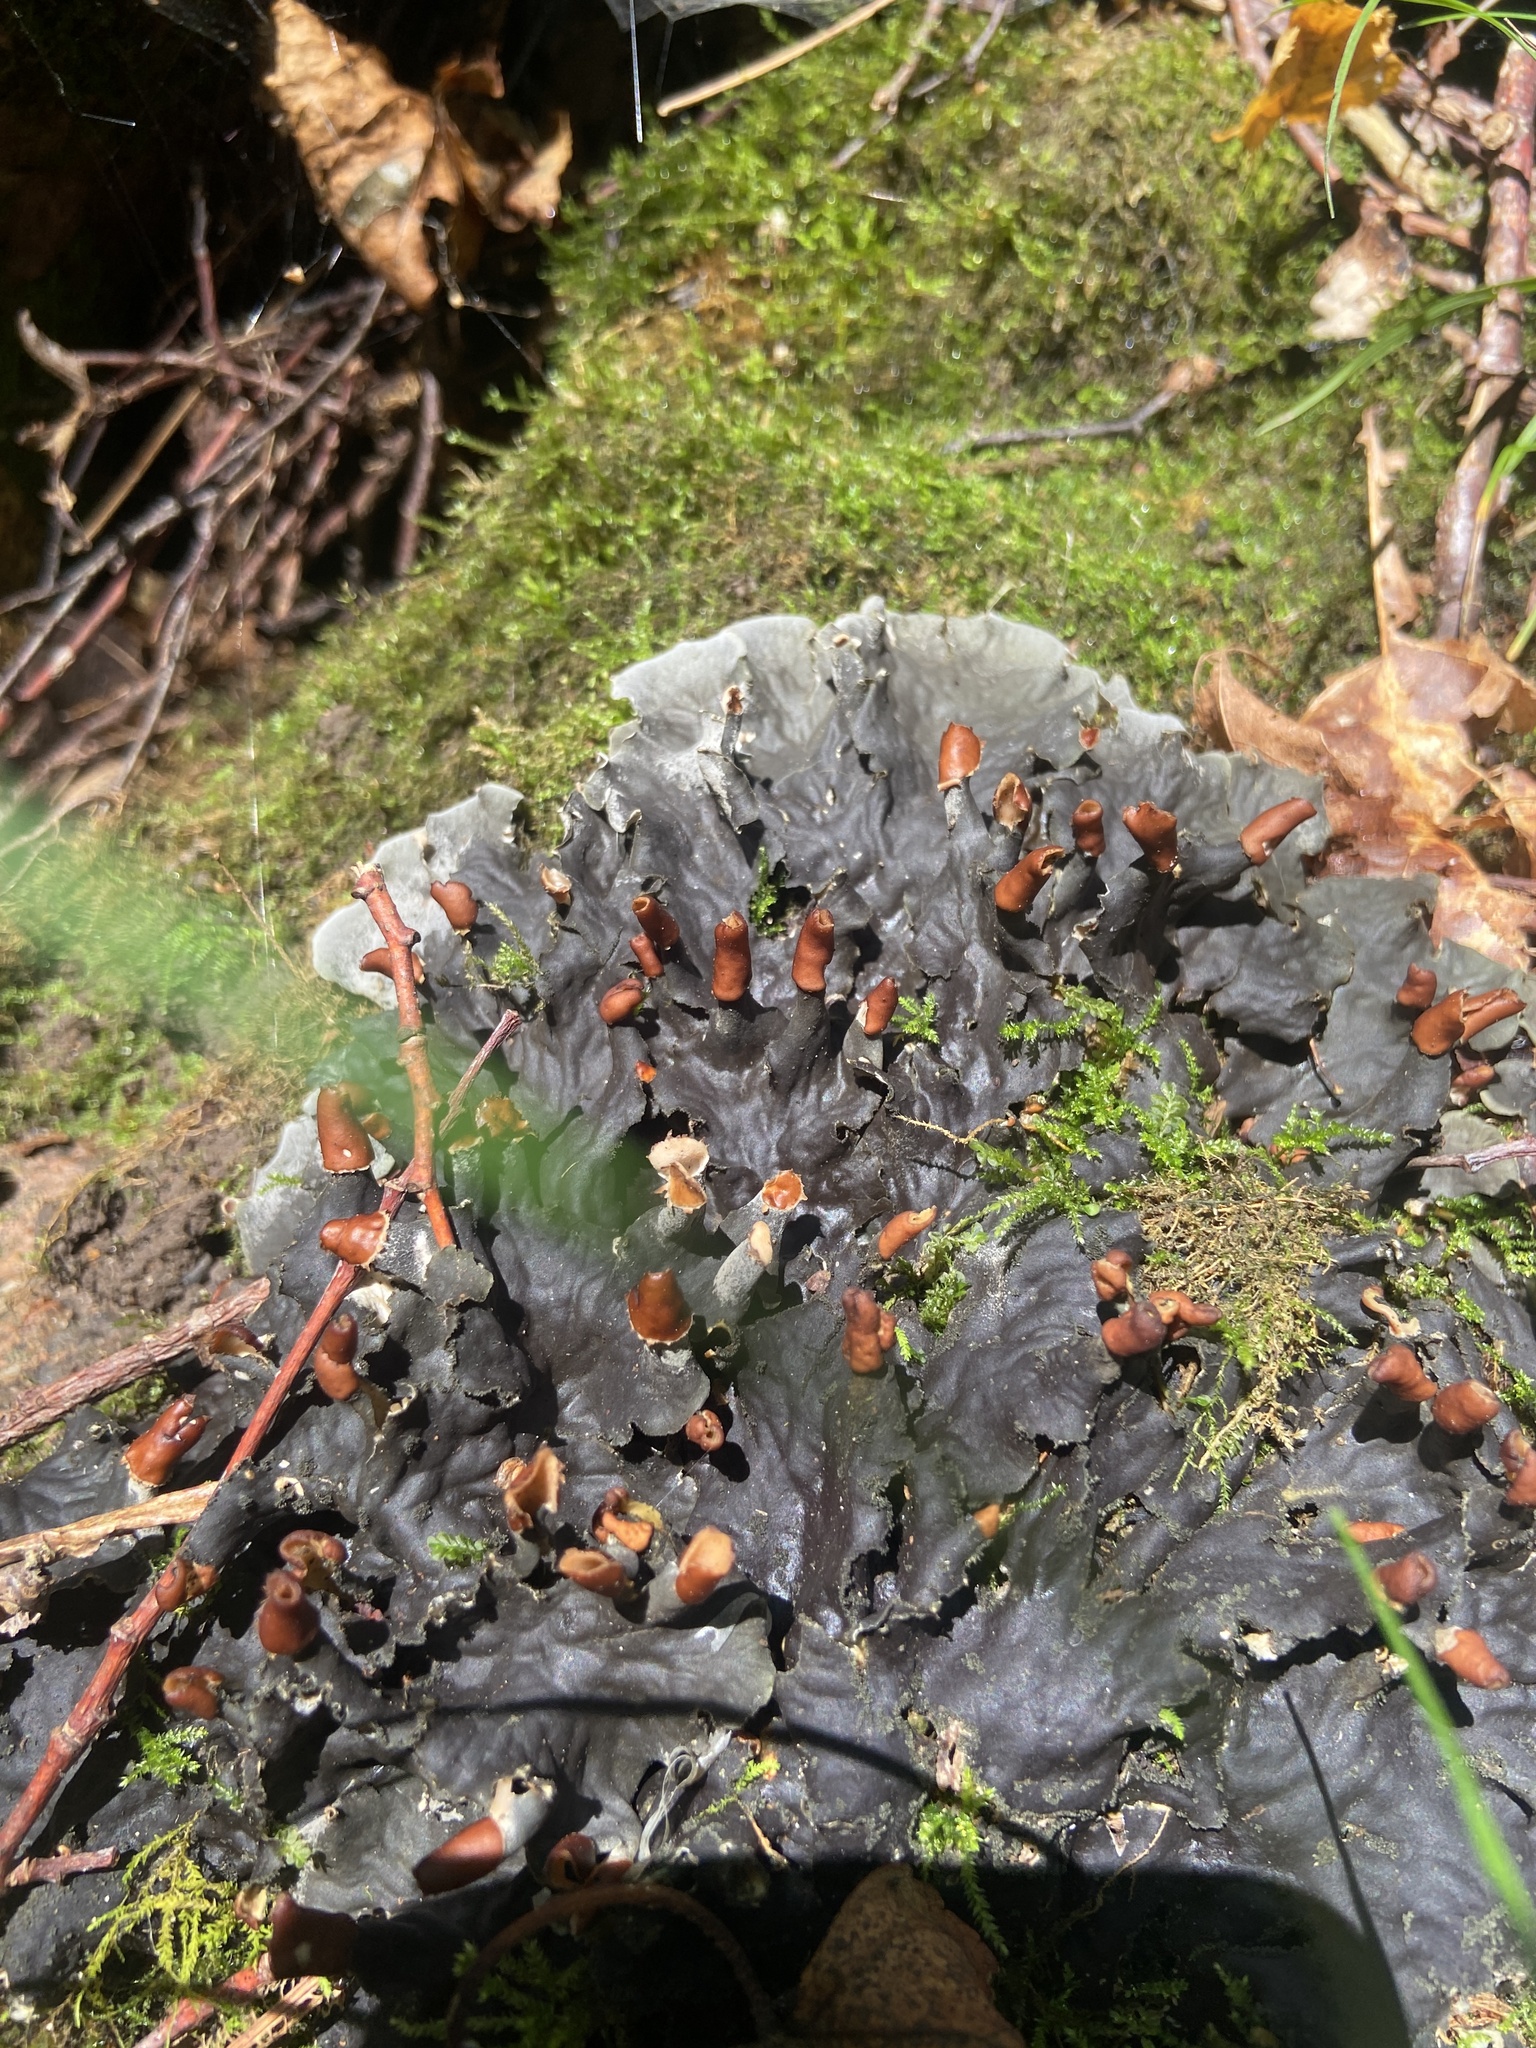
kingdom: Fungi
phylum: Ascomycota
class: Lecanoromycetes
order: Peltigerales
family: Peltigeraceae
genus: Peltigera
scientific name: Peltigera praetextata
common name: Scaly dog-lichen
